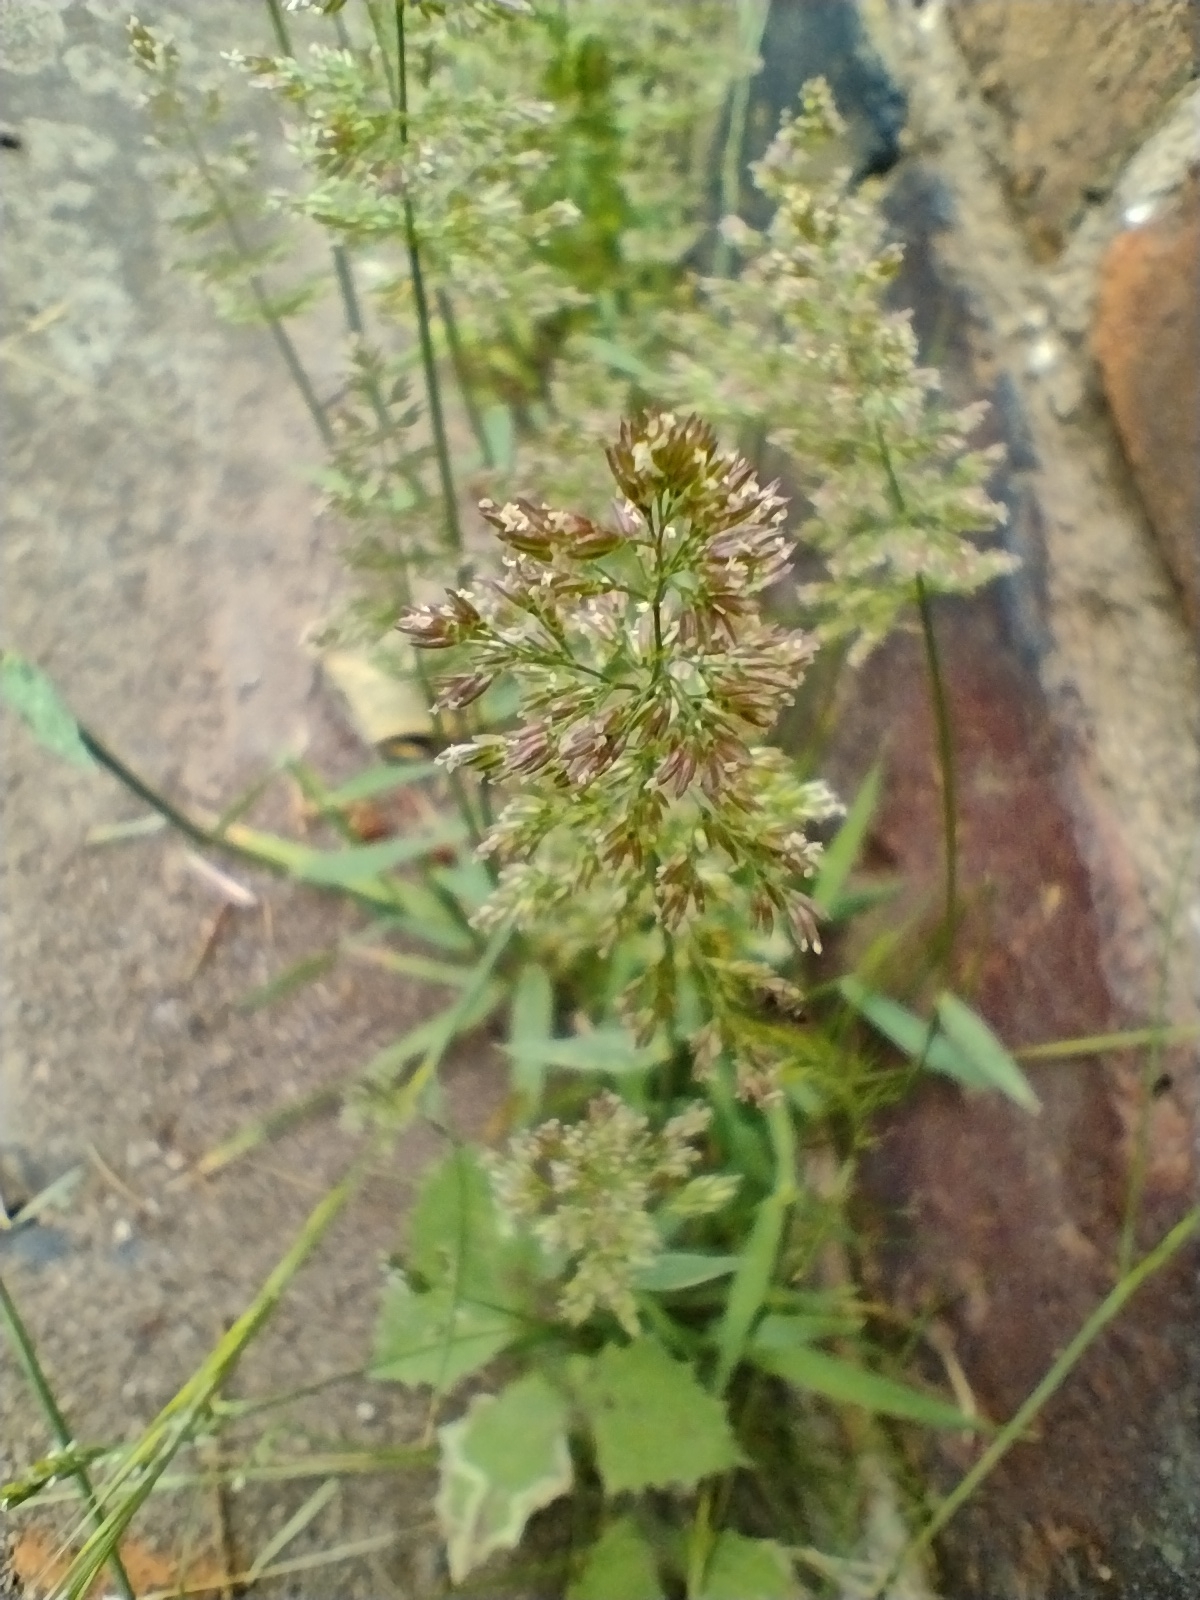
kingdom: Plantae
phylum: Tracheophyta
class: Liliopsida
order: Poales
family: Poaceae
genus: Polypogon
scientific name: Polypogon viridis
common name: Water bent
